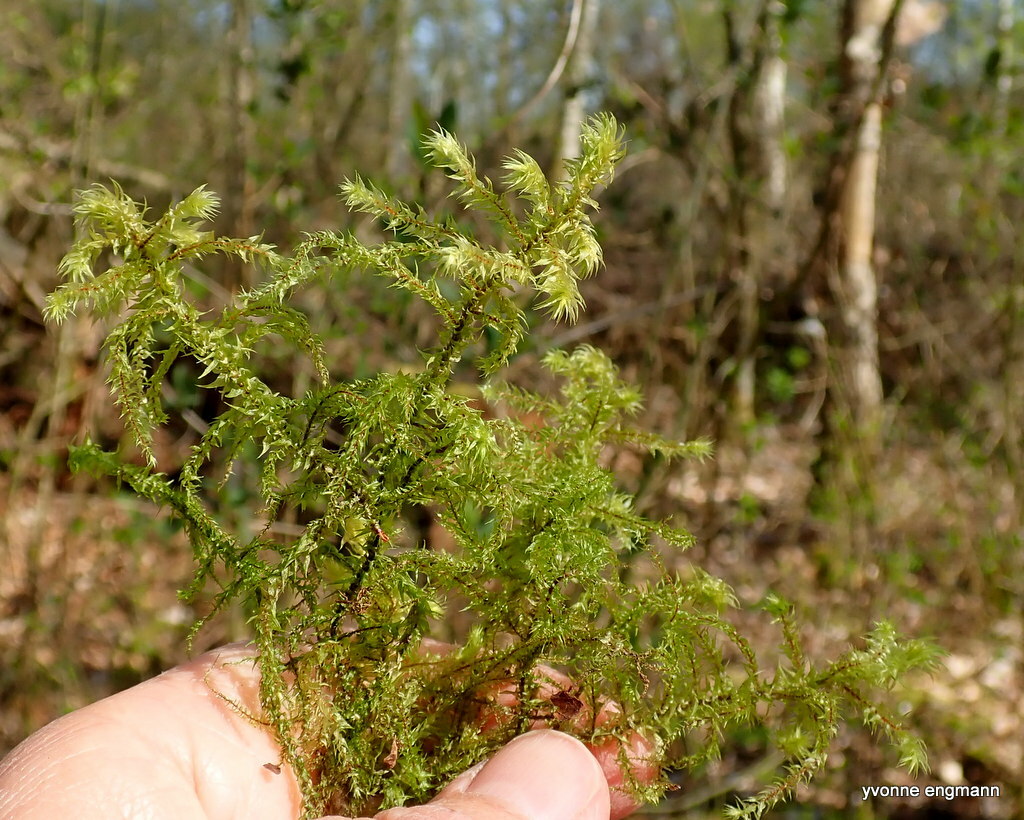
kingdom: Plantae
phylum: Bryophyta
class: Bryopsida
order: Hypnales
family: Hylocomiaceae
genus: Hylocomiadelphus
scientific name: Hylocomiadelphus triquetrus
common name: Rough goose neck moss
